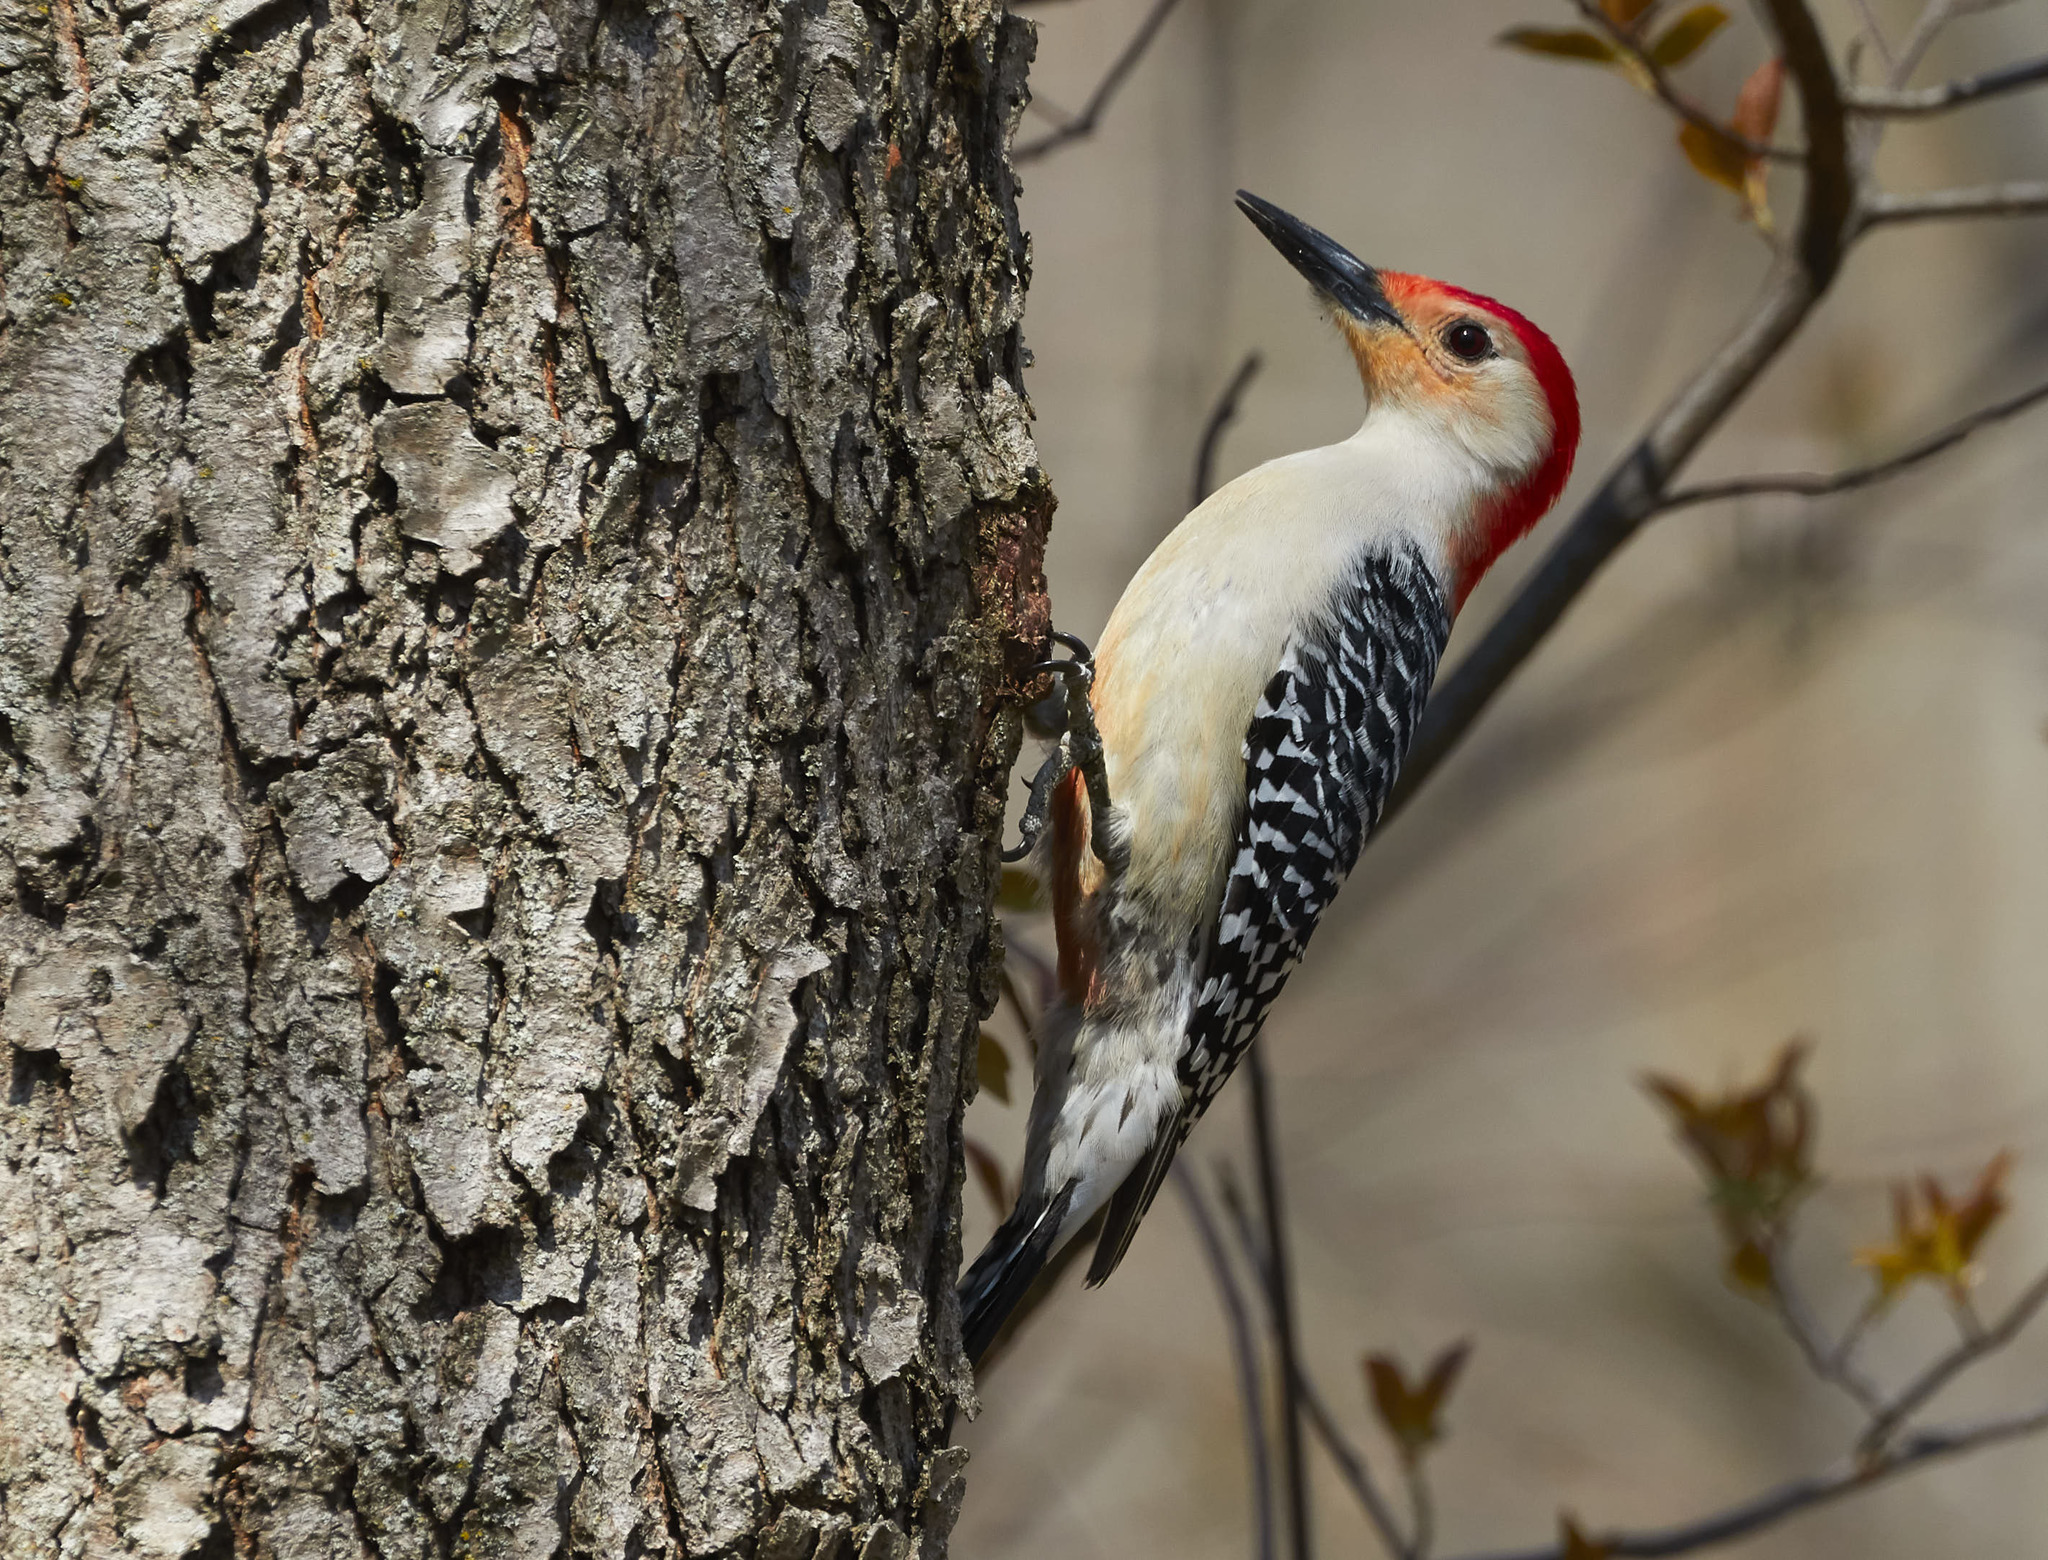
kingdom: Animalia
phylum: Chordata
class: Aves
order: Piciformes
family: Picidae
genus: Melanerpes
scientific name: Melanerpes carolinus
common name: Red-bellied woodpecker
